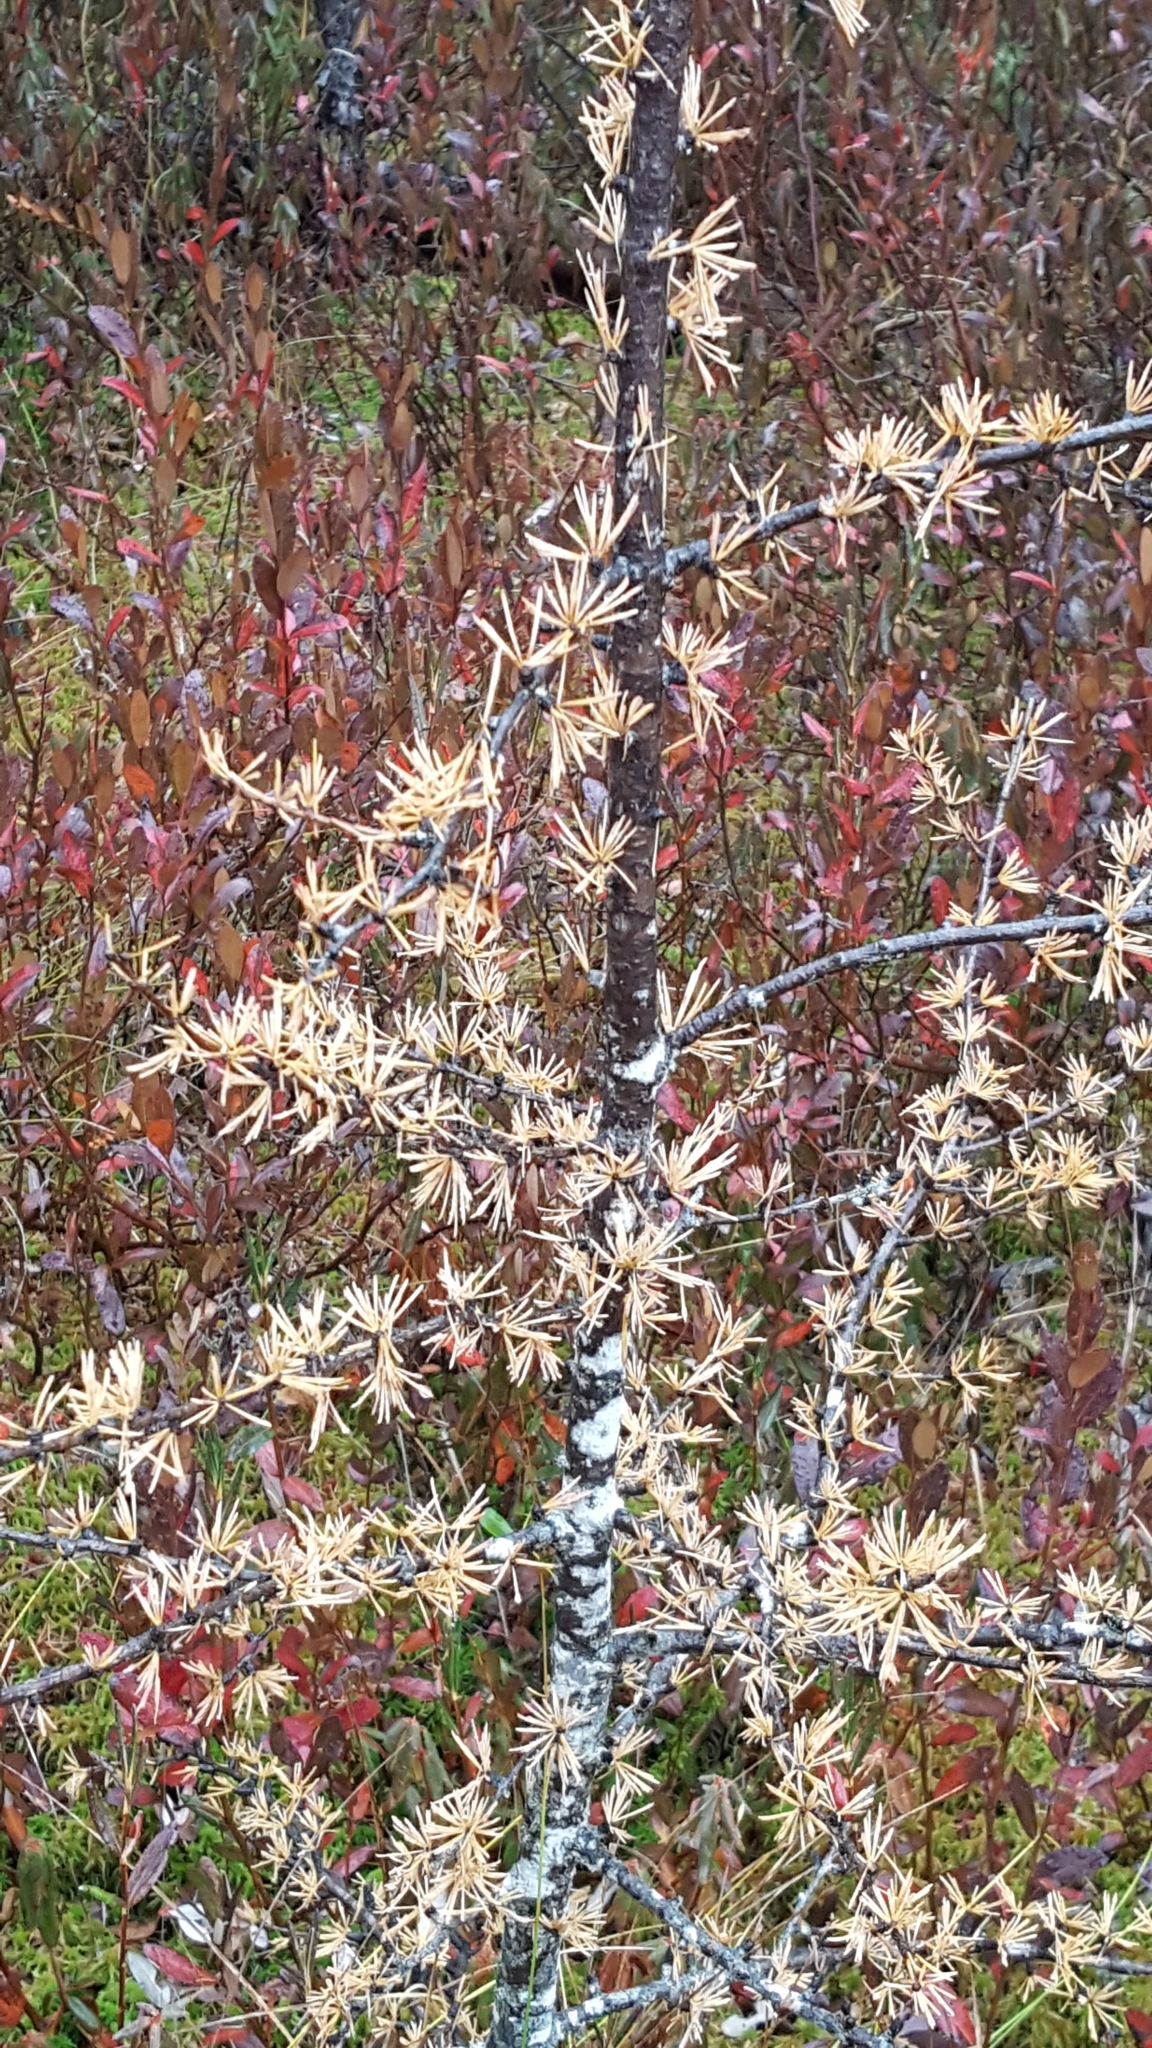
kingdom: Plantae
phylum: Tracheophyta
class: Pinopsida
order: Pinales
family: Pinaceae
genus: Larix
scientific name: Larix laricina
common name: American larch
